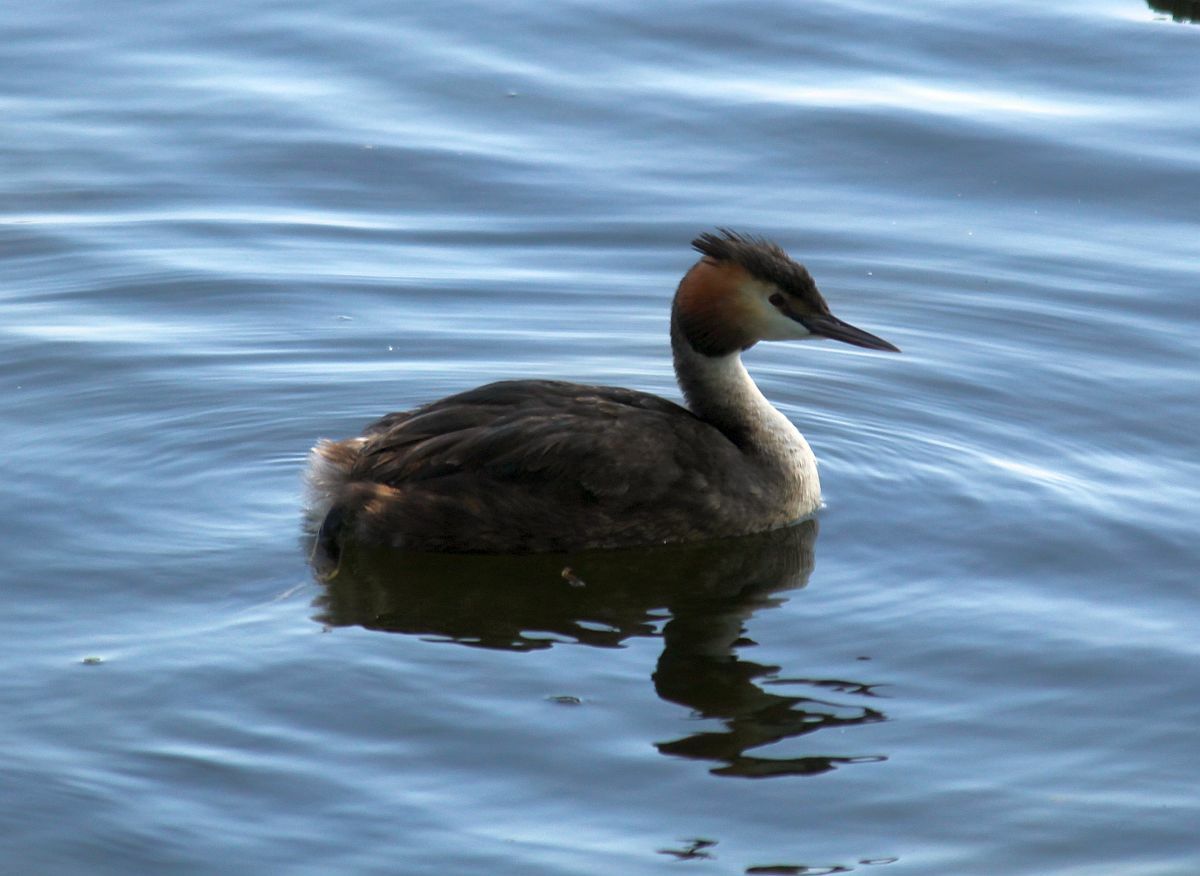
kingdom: Animalia
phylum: Chordata
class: Aves
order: Podicipediformes
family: Podicipedidae
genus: Podiceps
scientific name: Podiceps cristatus
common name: Great crested grebe
